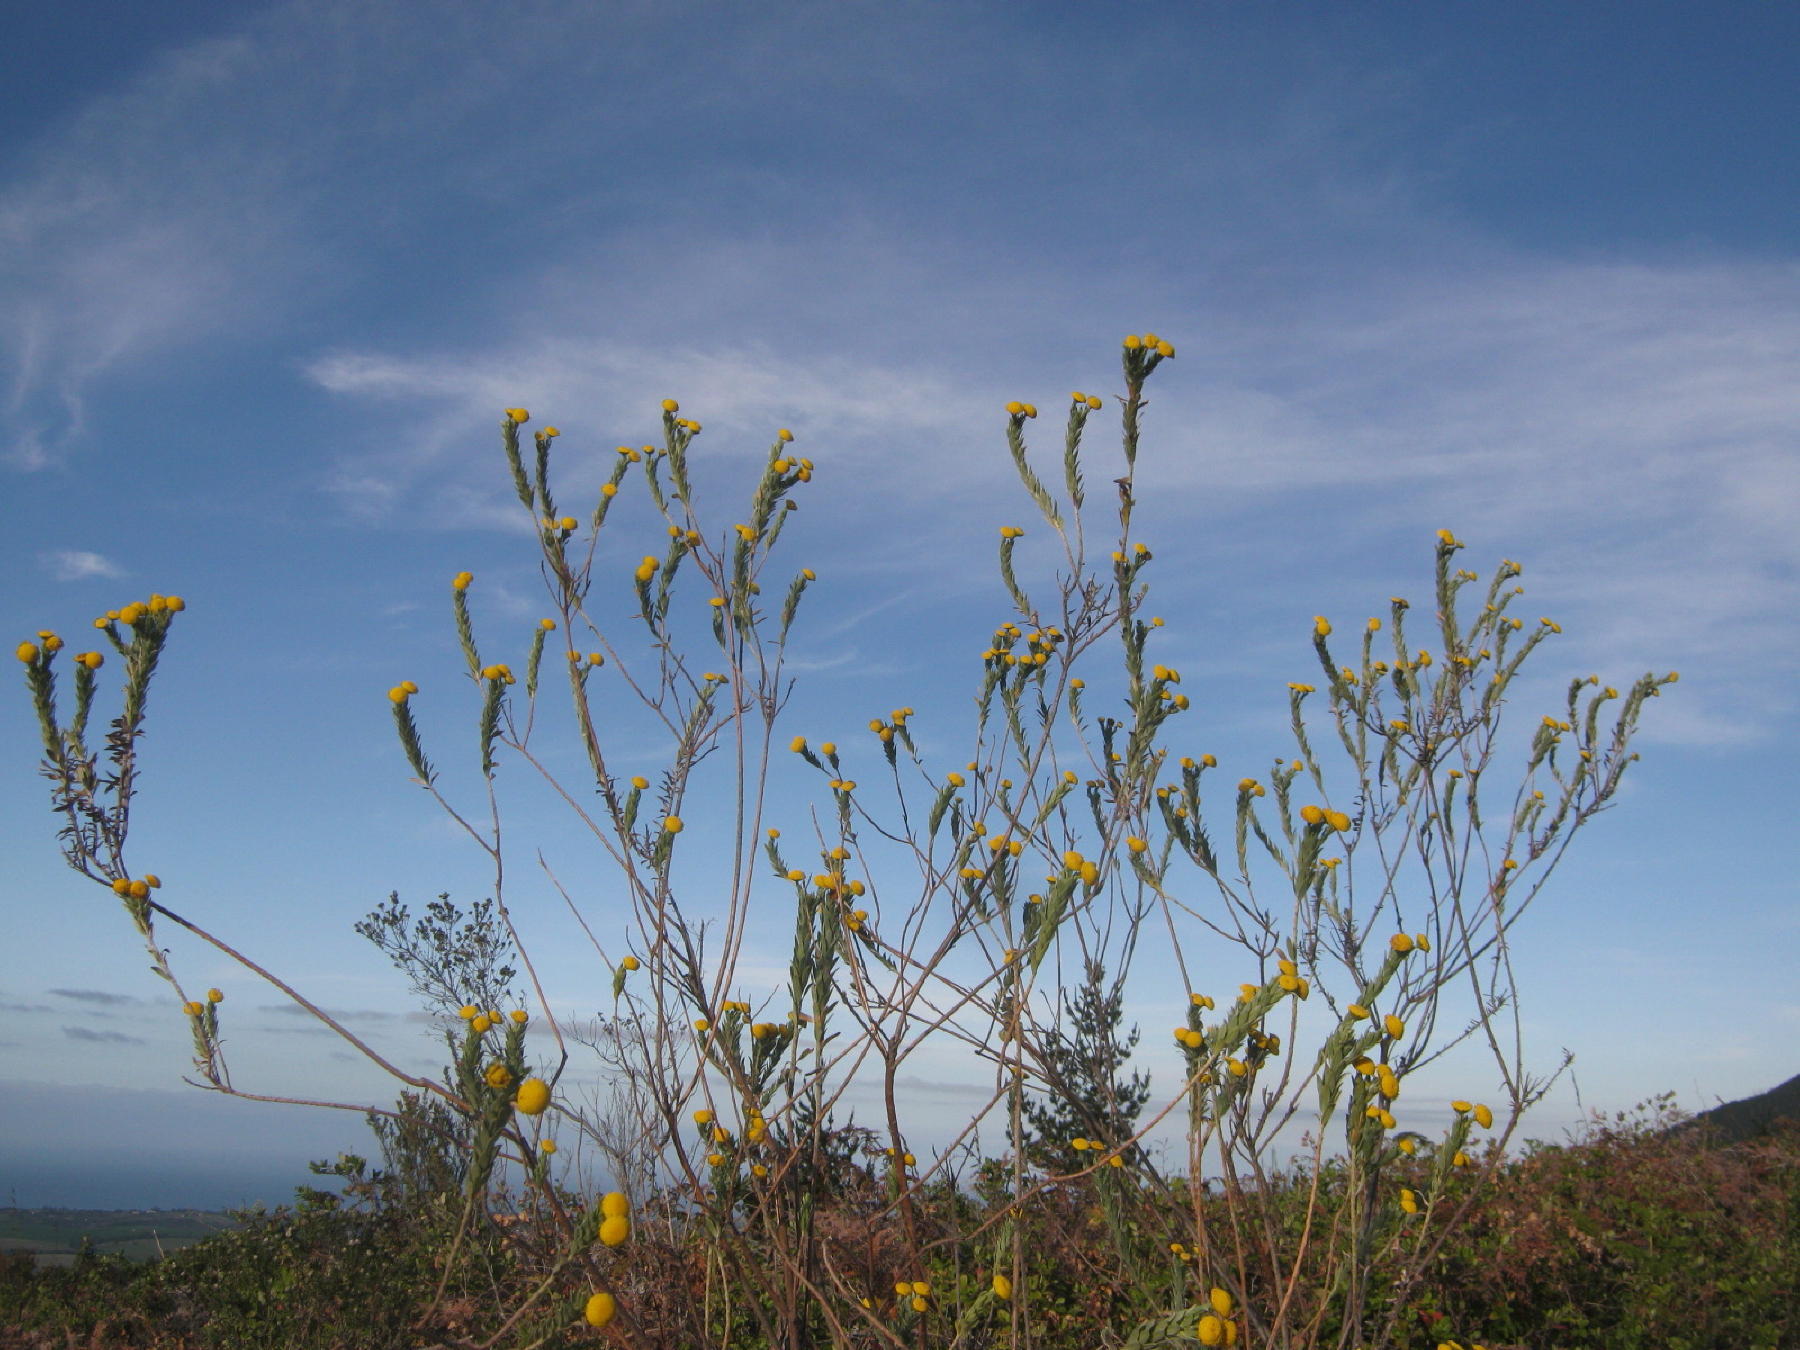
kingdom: Plantae
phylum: Tracheophyta
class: Magnoliopsida
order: Asterales
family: Asteraceae
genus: Schistostephium
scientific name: Schistostephium umbellatum
